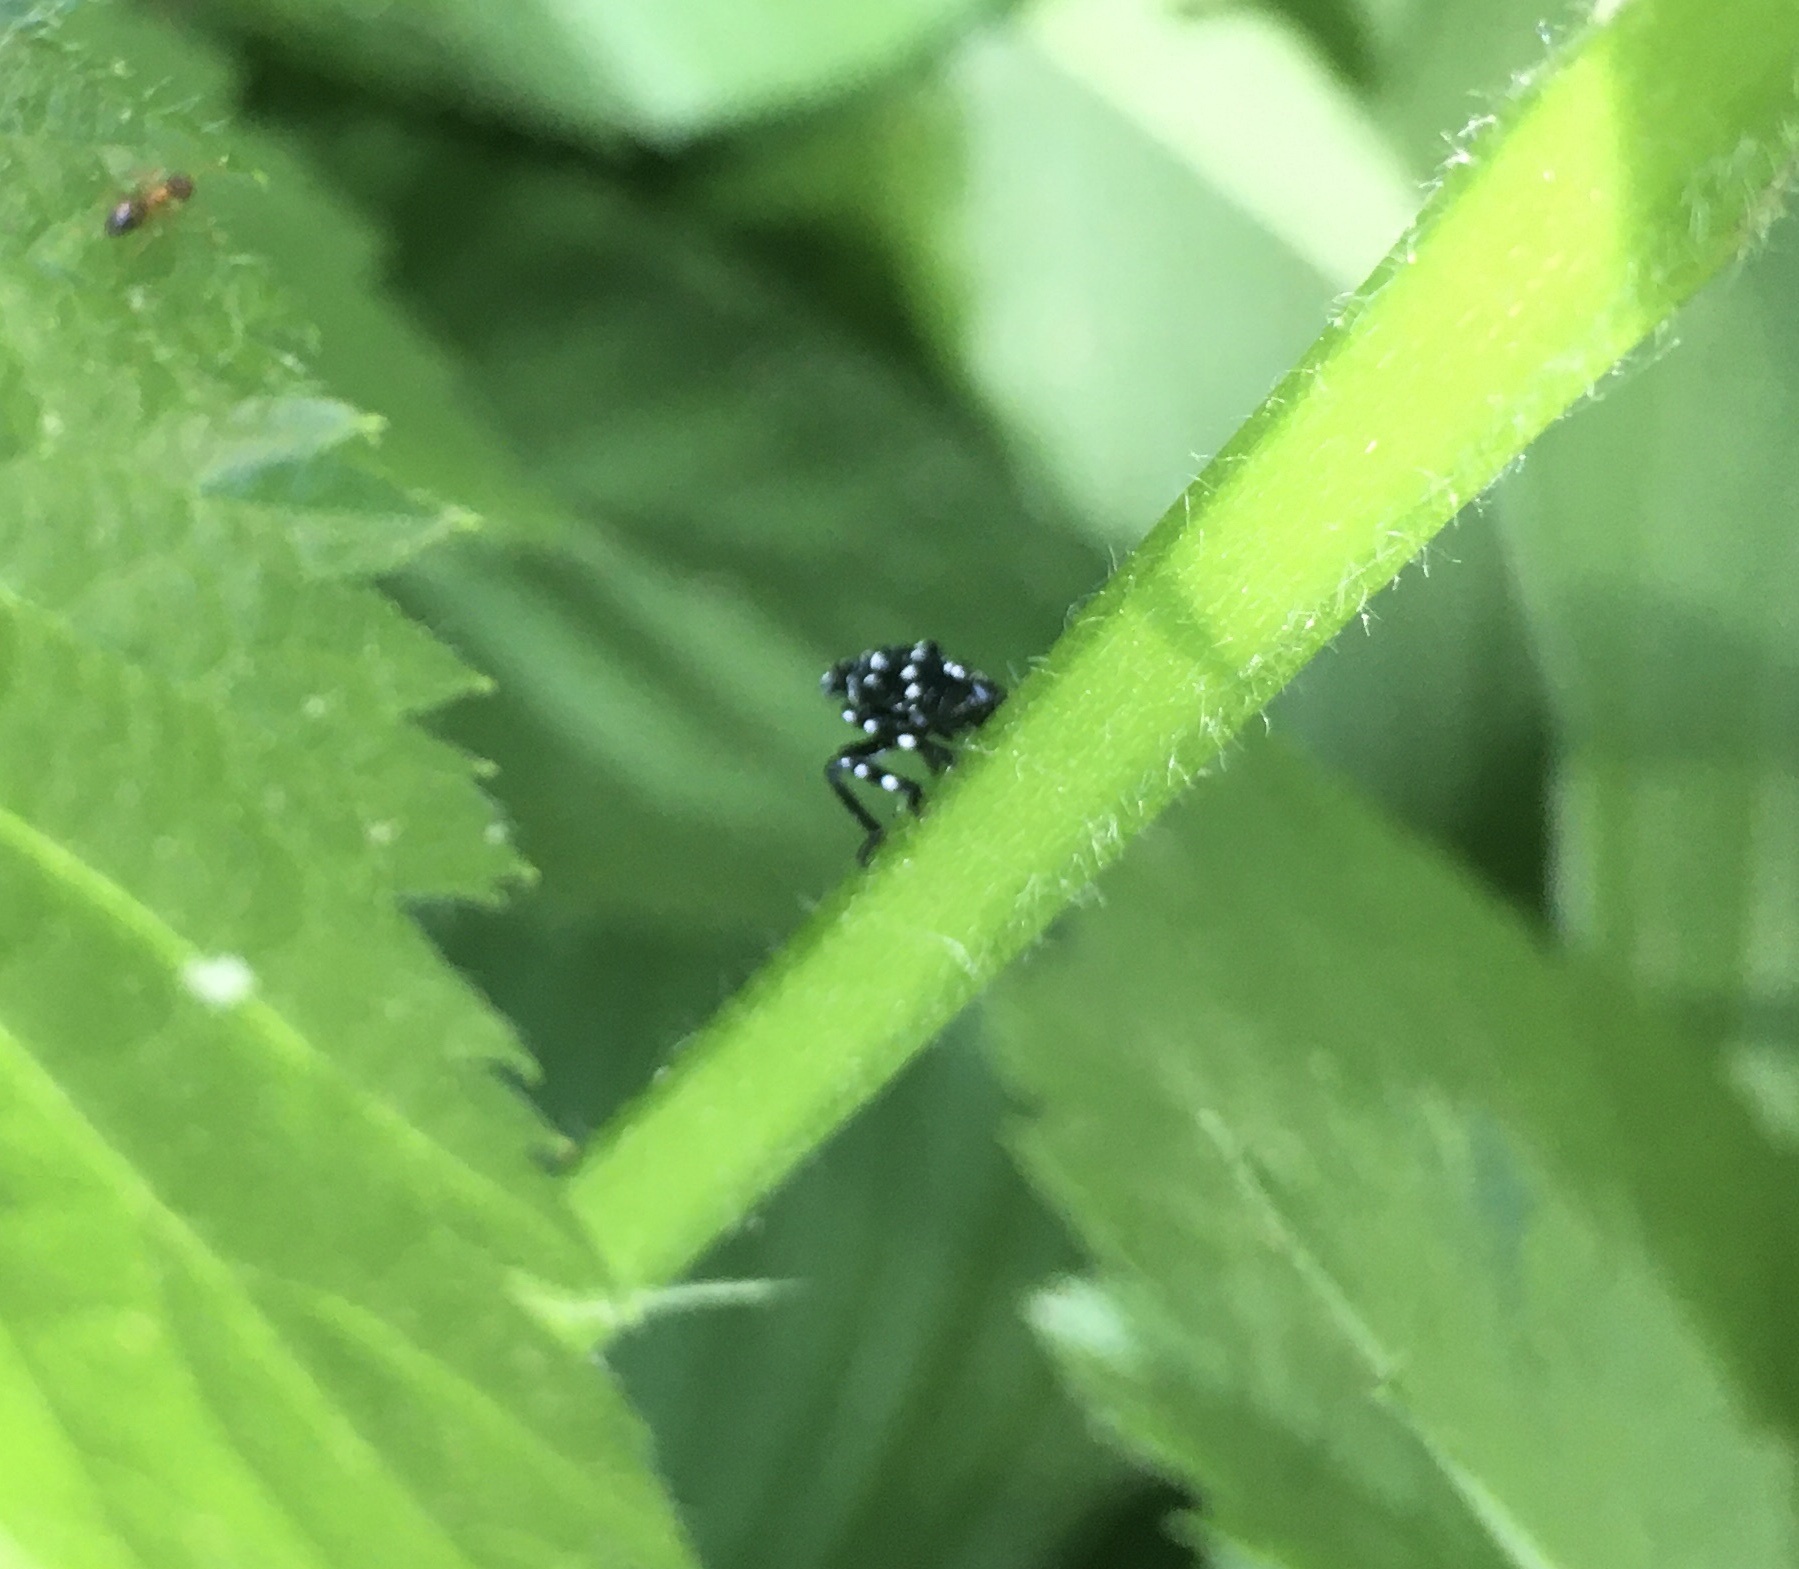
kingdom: Animalia
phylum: Arthropoda
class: Insecta
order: Hemiptera
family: Fulgoridae
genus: Lycorma
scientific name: Lycorma delicatula
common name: Spotted lanternfly
